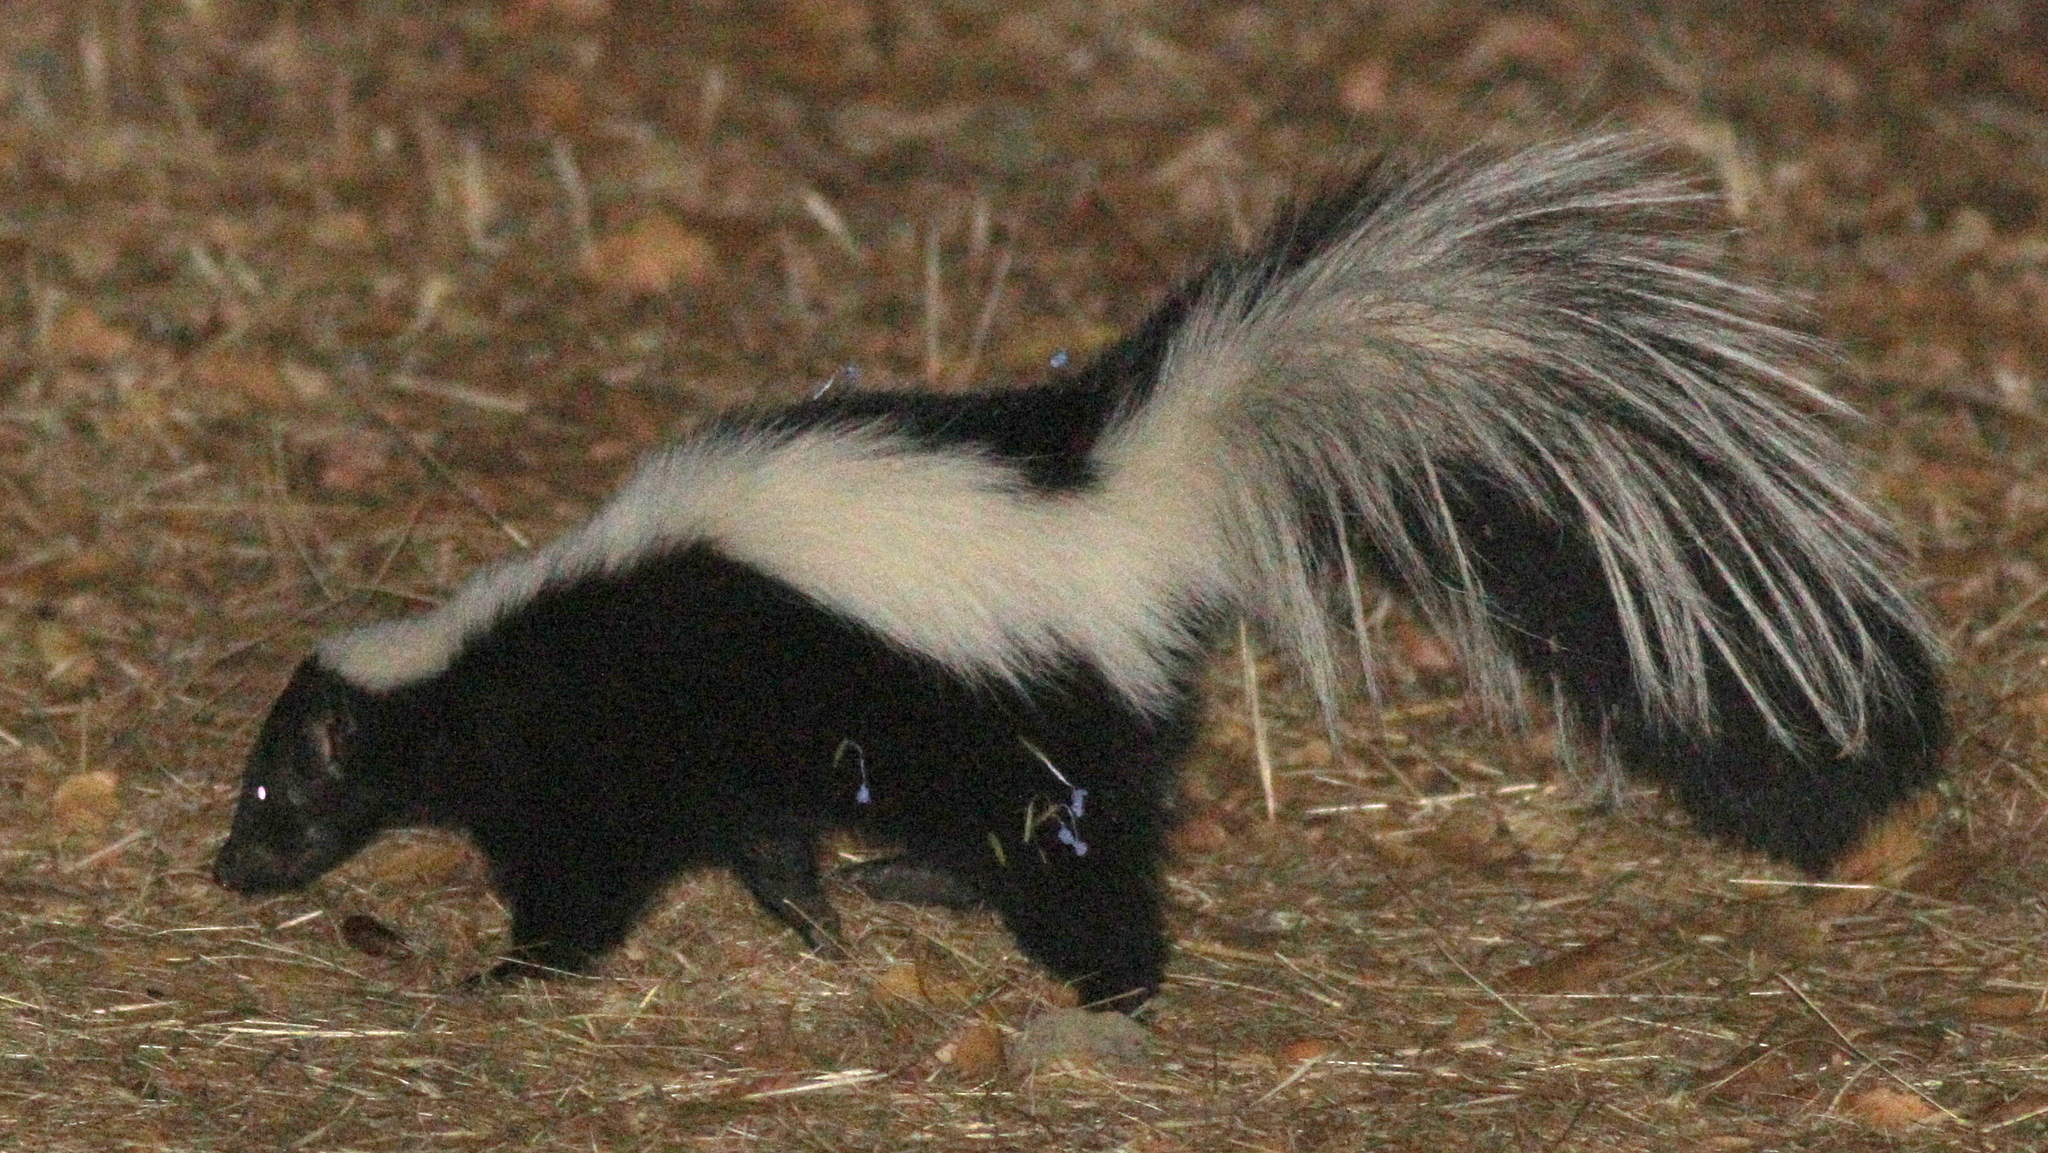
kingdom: Animalia
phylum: Chordata
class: Mammalia
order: Carnivora
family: Mephitidae
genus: Mephitis
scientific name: Mephitis mephitis
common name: Striped skunk
